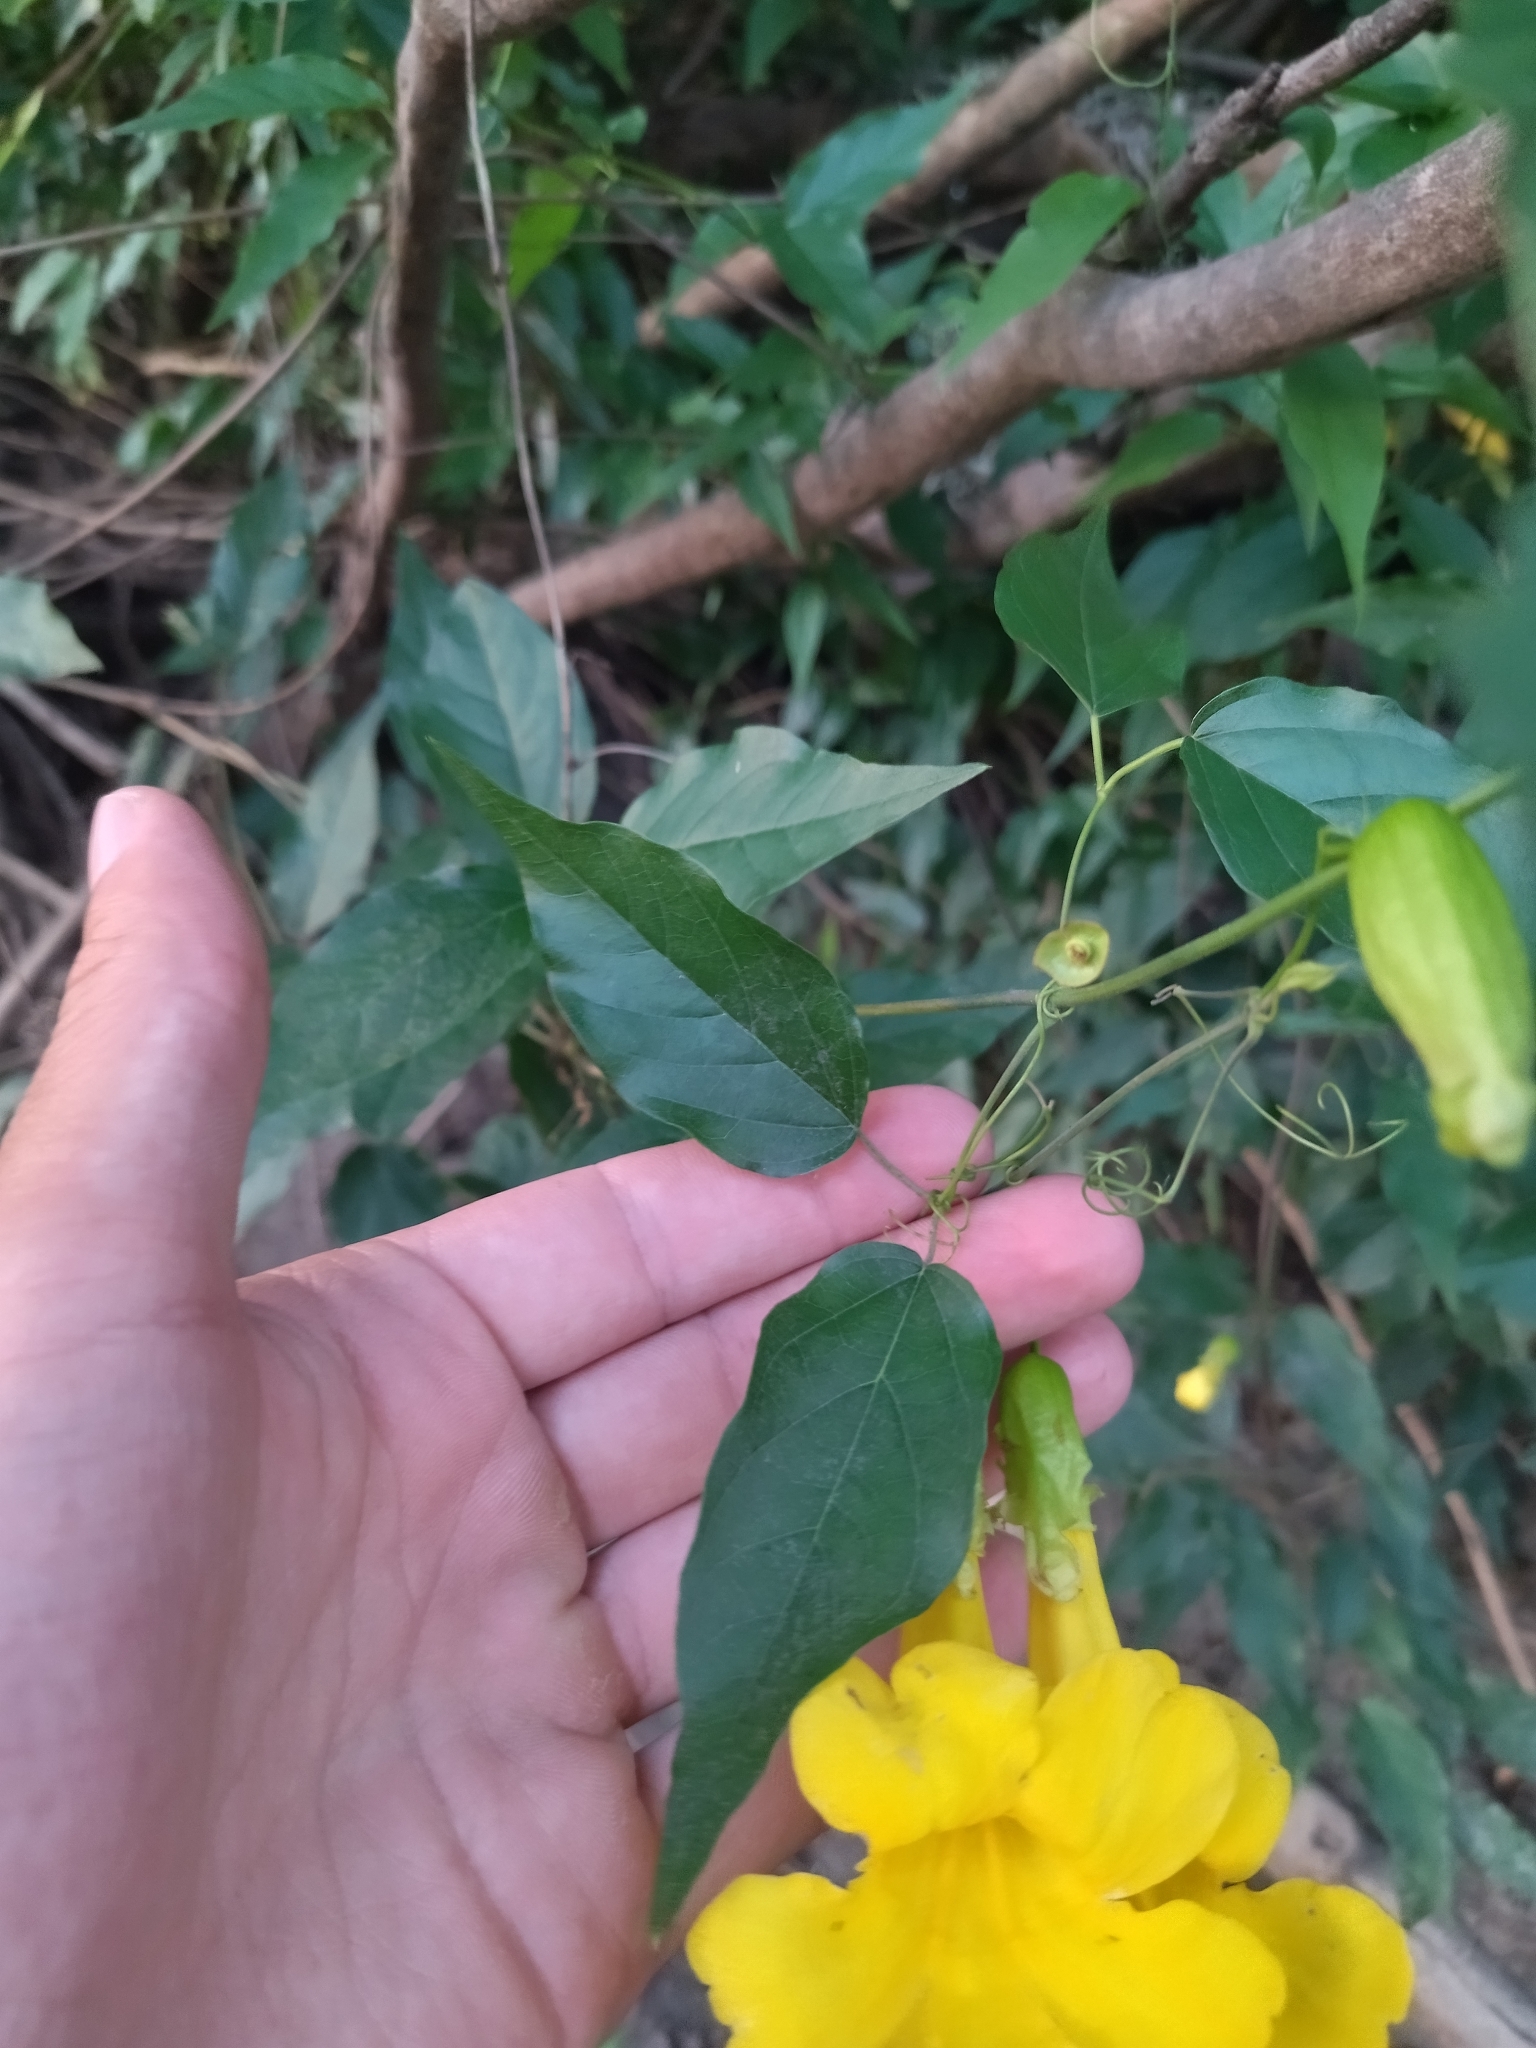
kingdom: Plantae
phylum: Tracheophyta
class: Magnoliopsida
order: Lamiales
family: Bignoniaceae
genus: Dolichandra
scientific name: Dolichandra unguis-cati
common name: Catclaw vine
